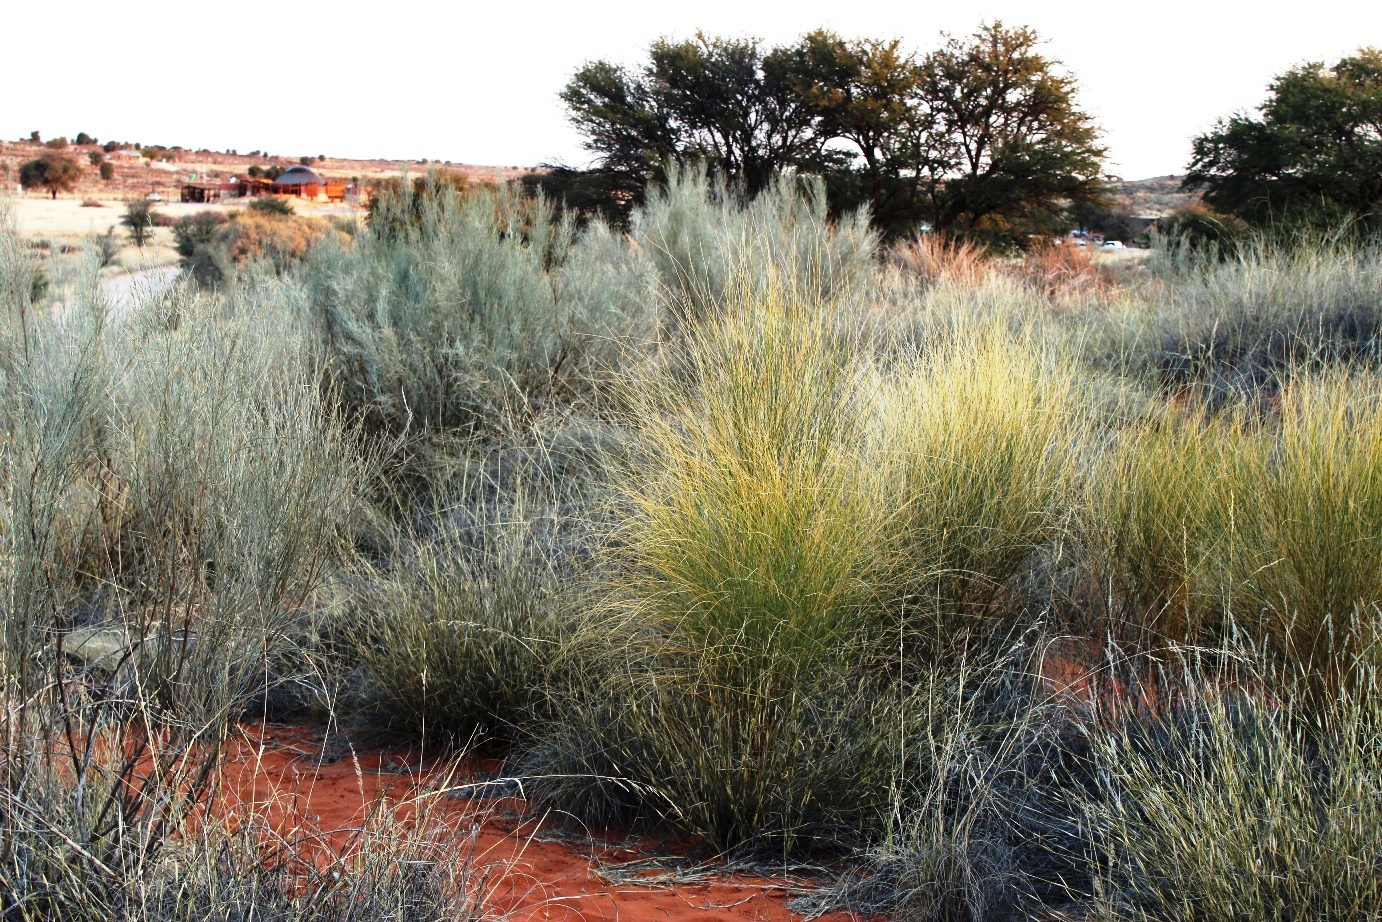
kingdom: Plantae
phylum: Tracheophyta
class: Magnoliopsida
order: Fabales
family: Fabaceae
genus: Calobota
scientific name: Calobota linearifolia
